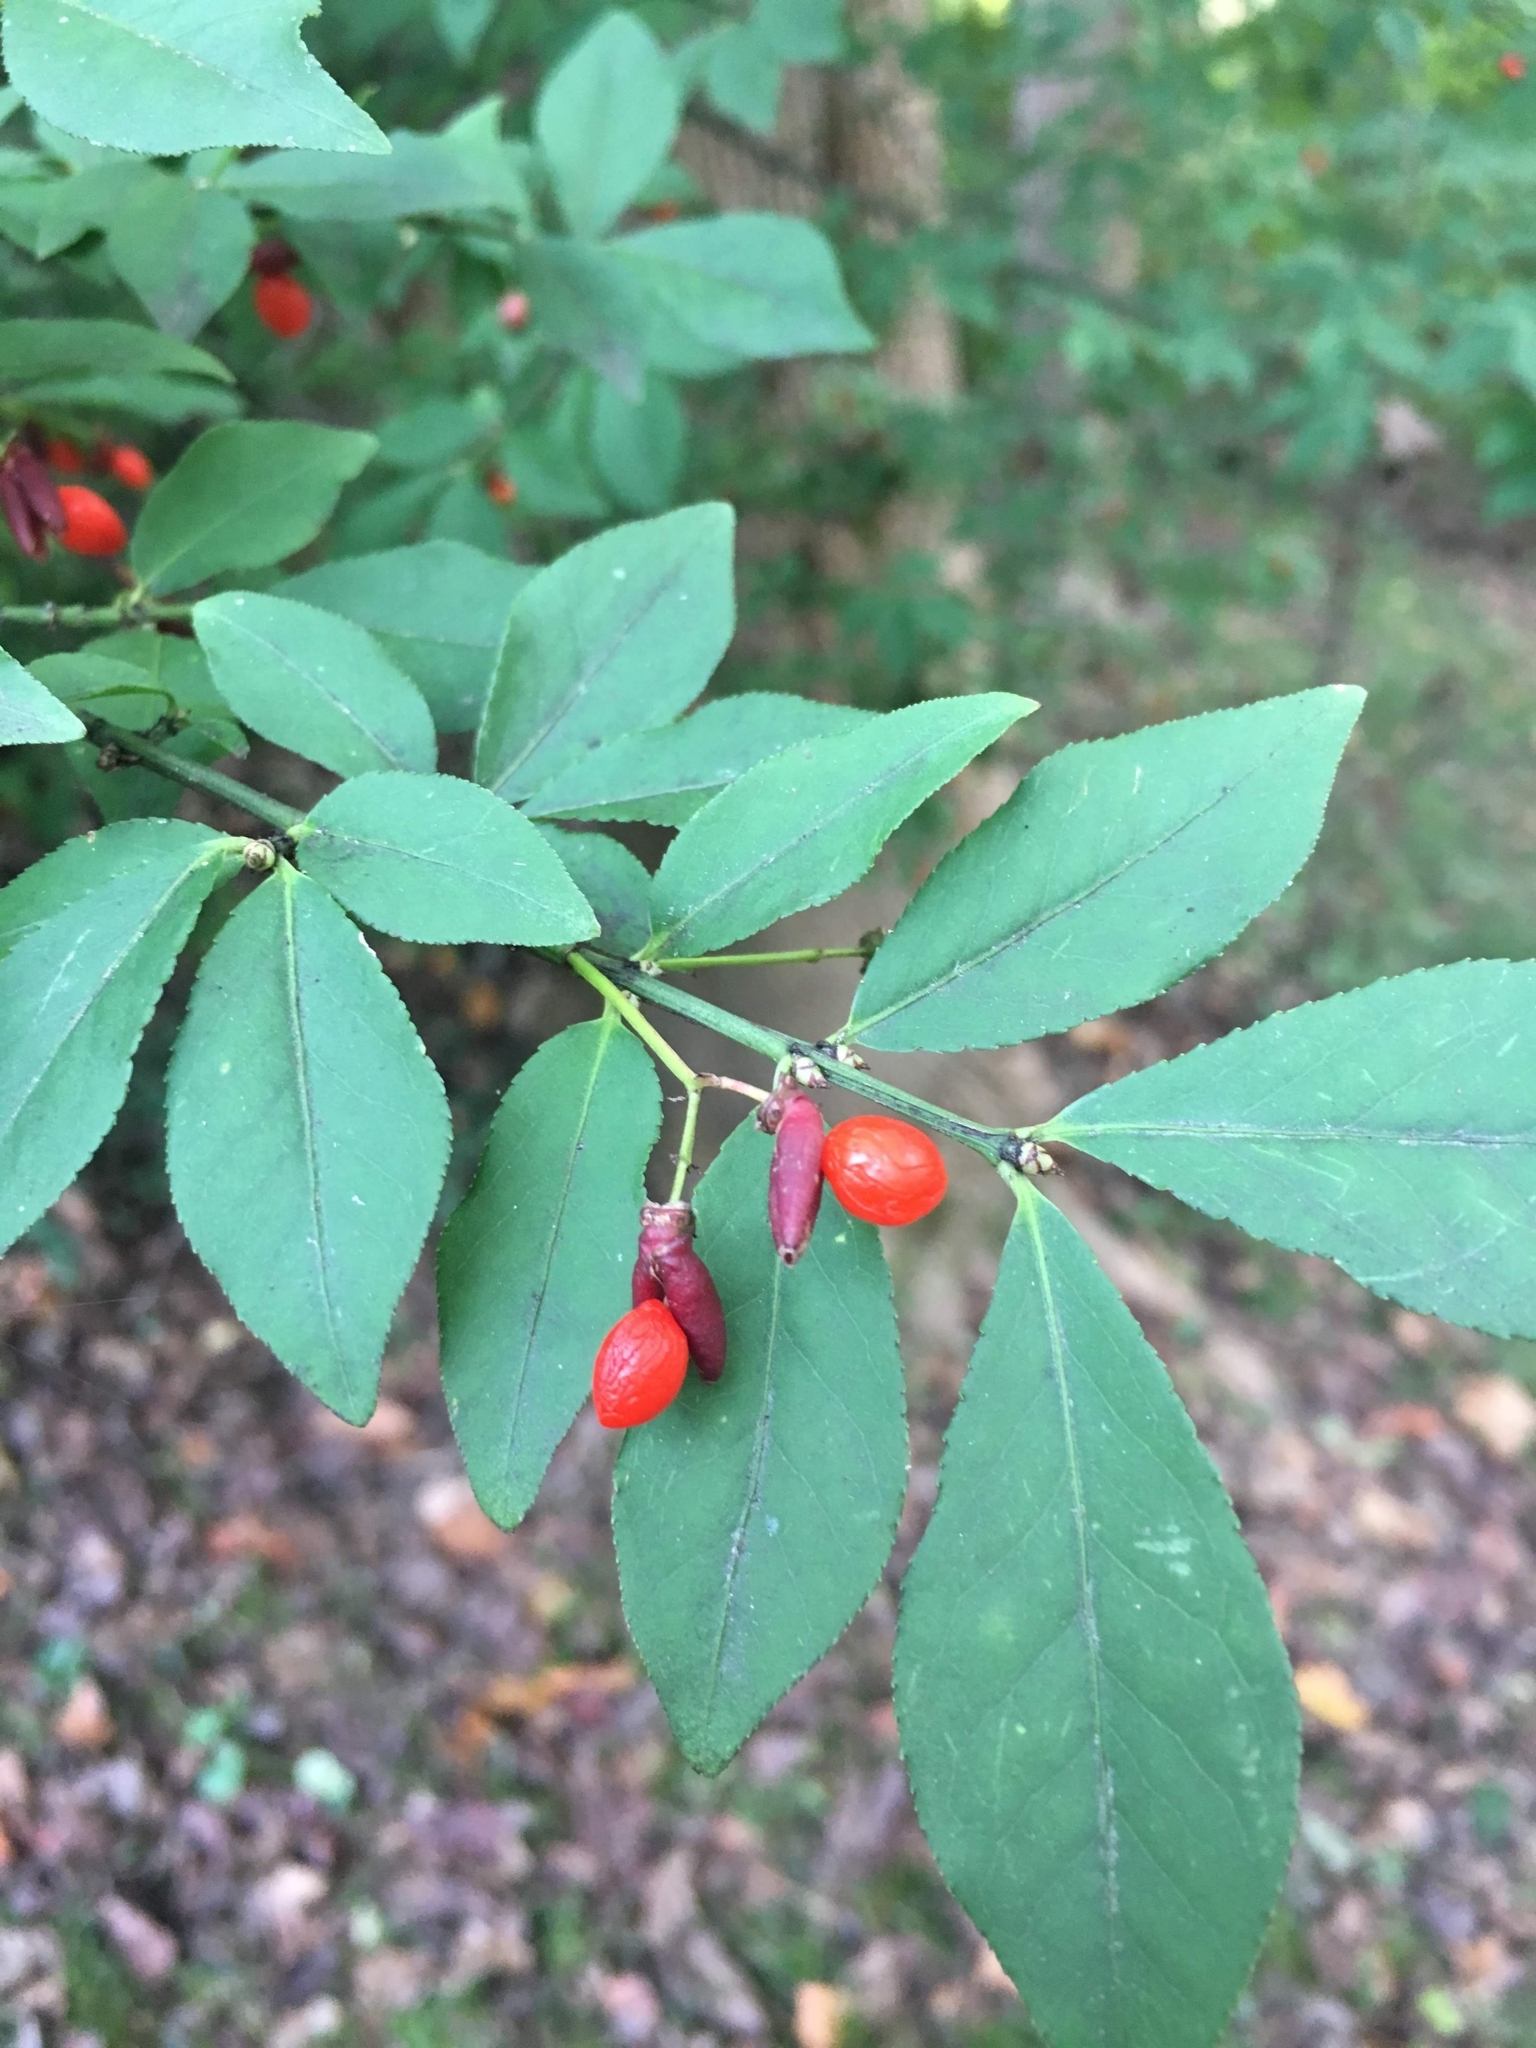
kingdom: Plantae
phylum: Tracheophyta
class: Magnoliopsida
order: Celastrales
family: Celastraceae
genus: Euonymus
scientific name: Euonymus alatus
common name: Winged euonymus
